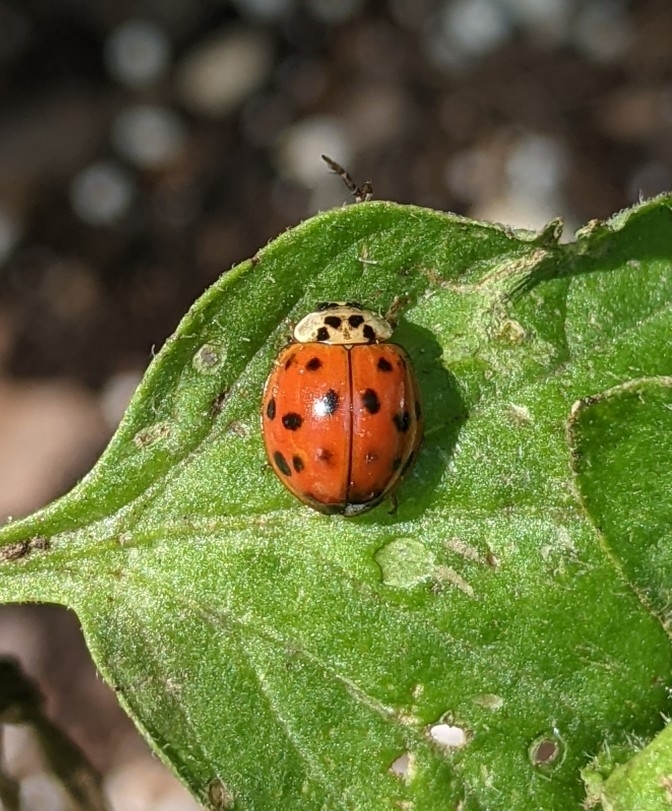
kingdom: Animalia
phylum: Arthropoda
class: Insecta
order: Coleoptera
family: Coccinellidae
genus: Harmonia
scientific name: Harmonia axyridis
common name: Harlequin ladybird
